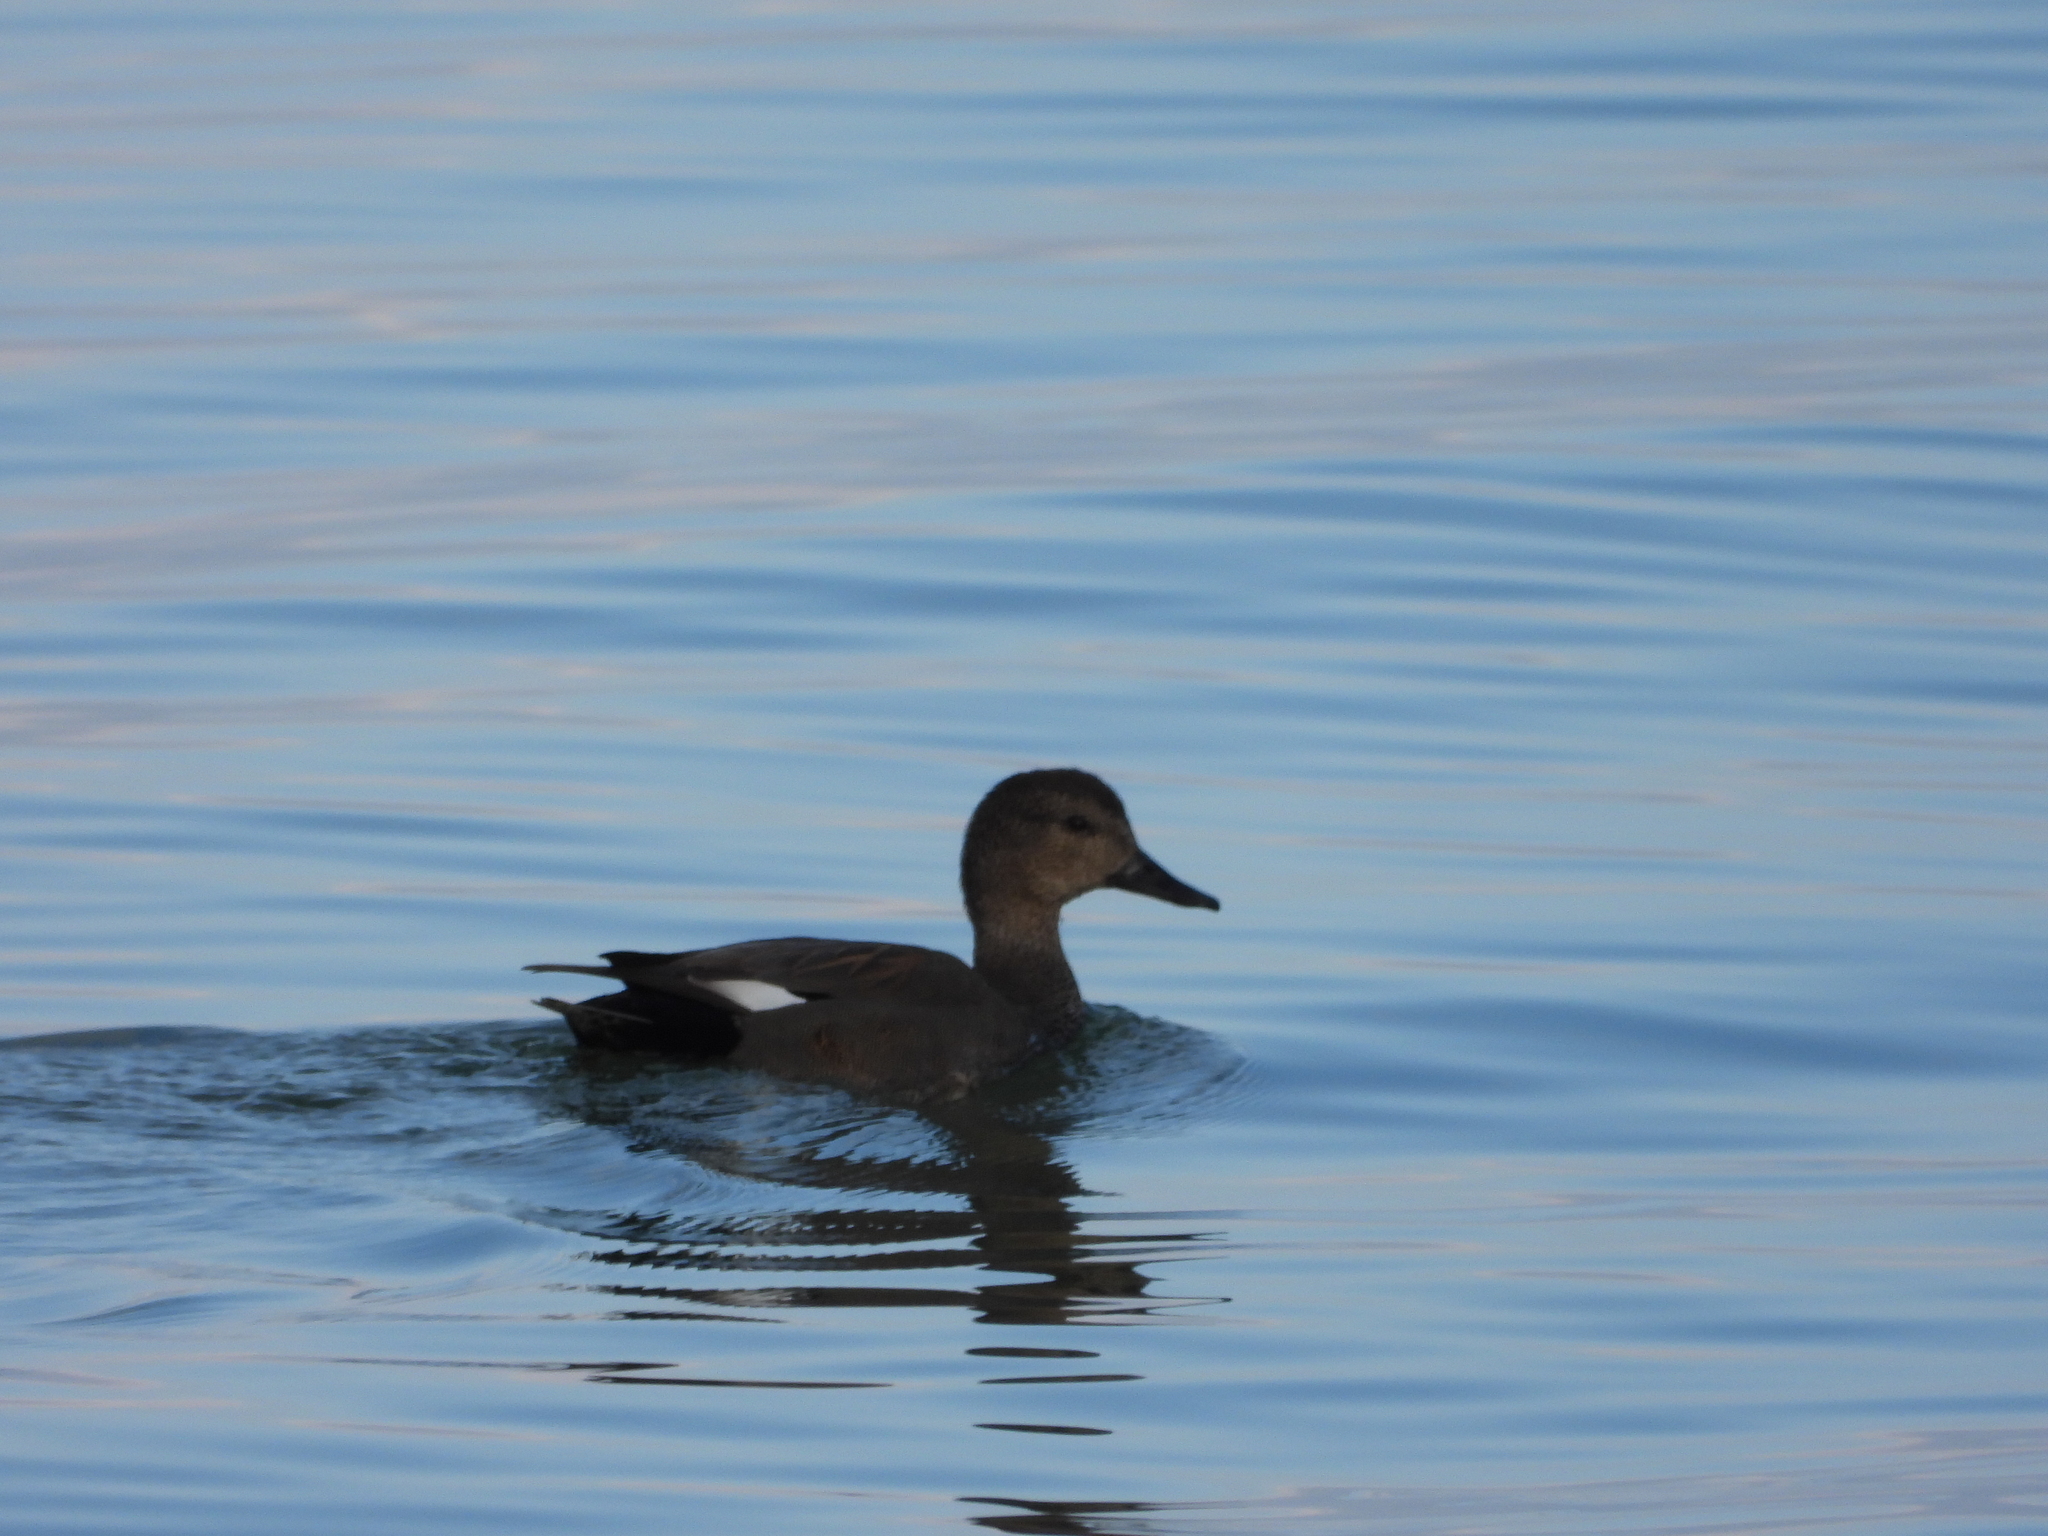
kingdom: Animalia
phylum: Chordata
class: Aves
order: Anseriformes
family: Anatidae
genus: Mareca
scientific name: Mareca strepera
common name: Gadwall
